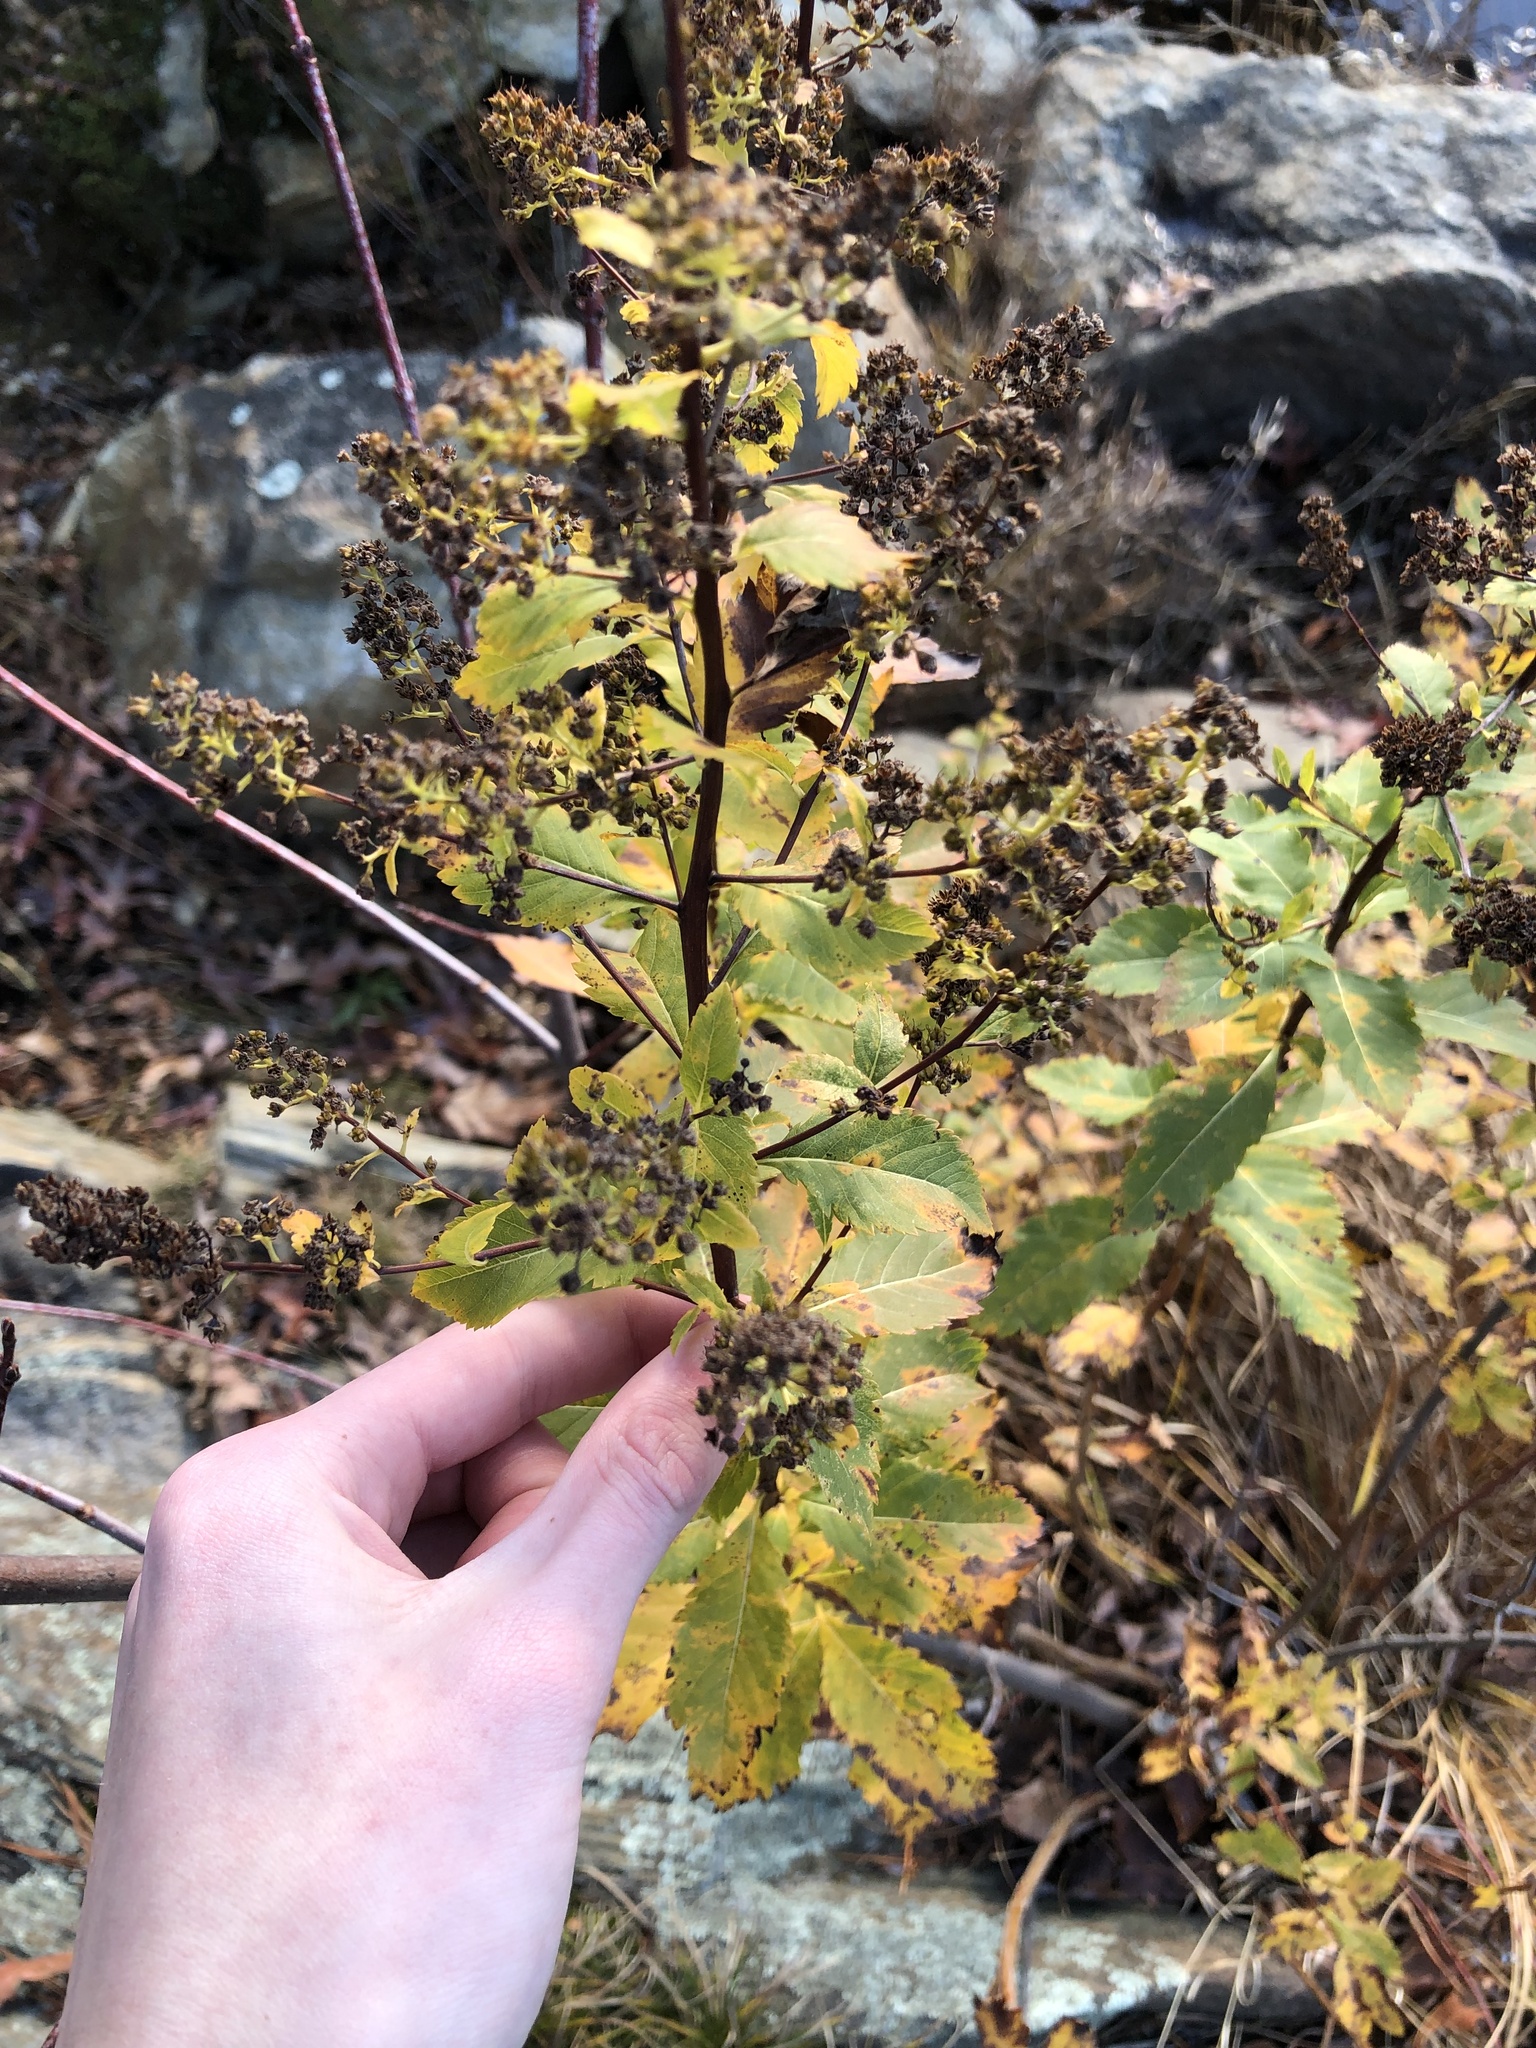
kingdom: Plantae
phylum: Tracheophyta
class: Magnoliopsida
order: Rosales
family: Rosaceae
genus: Spiraea
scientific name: Spiraea alba
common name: Pale bridewort
